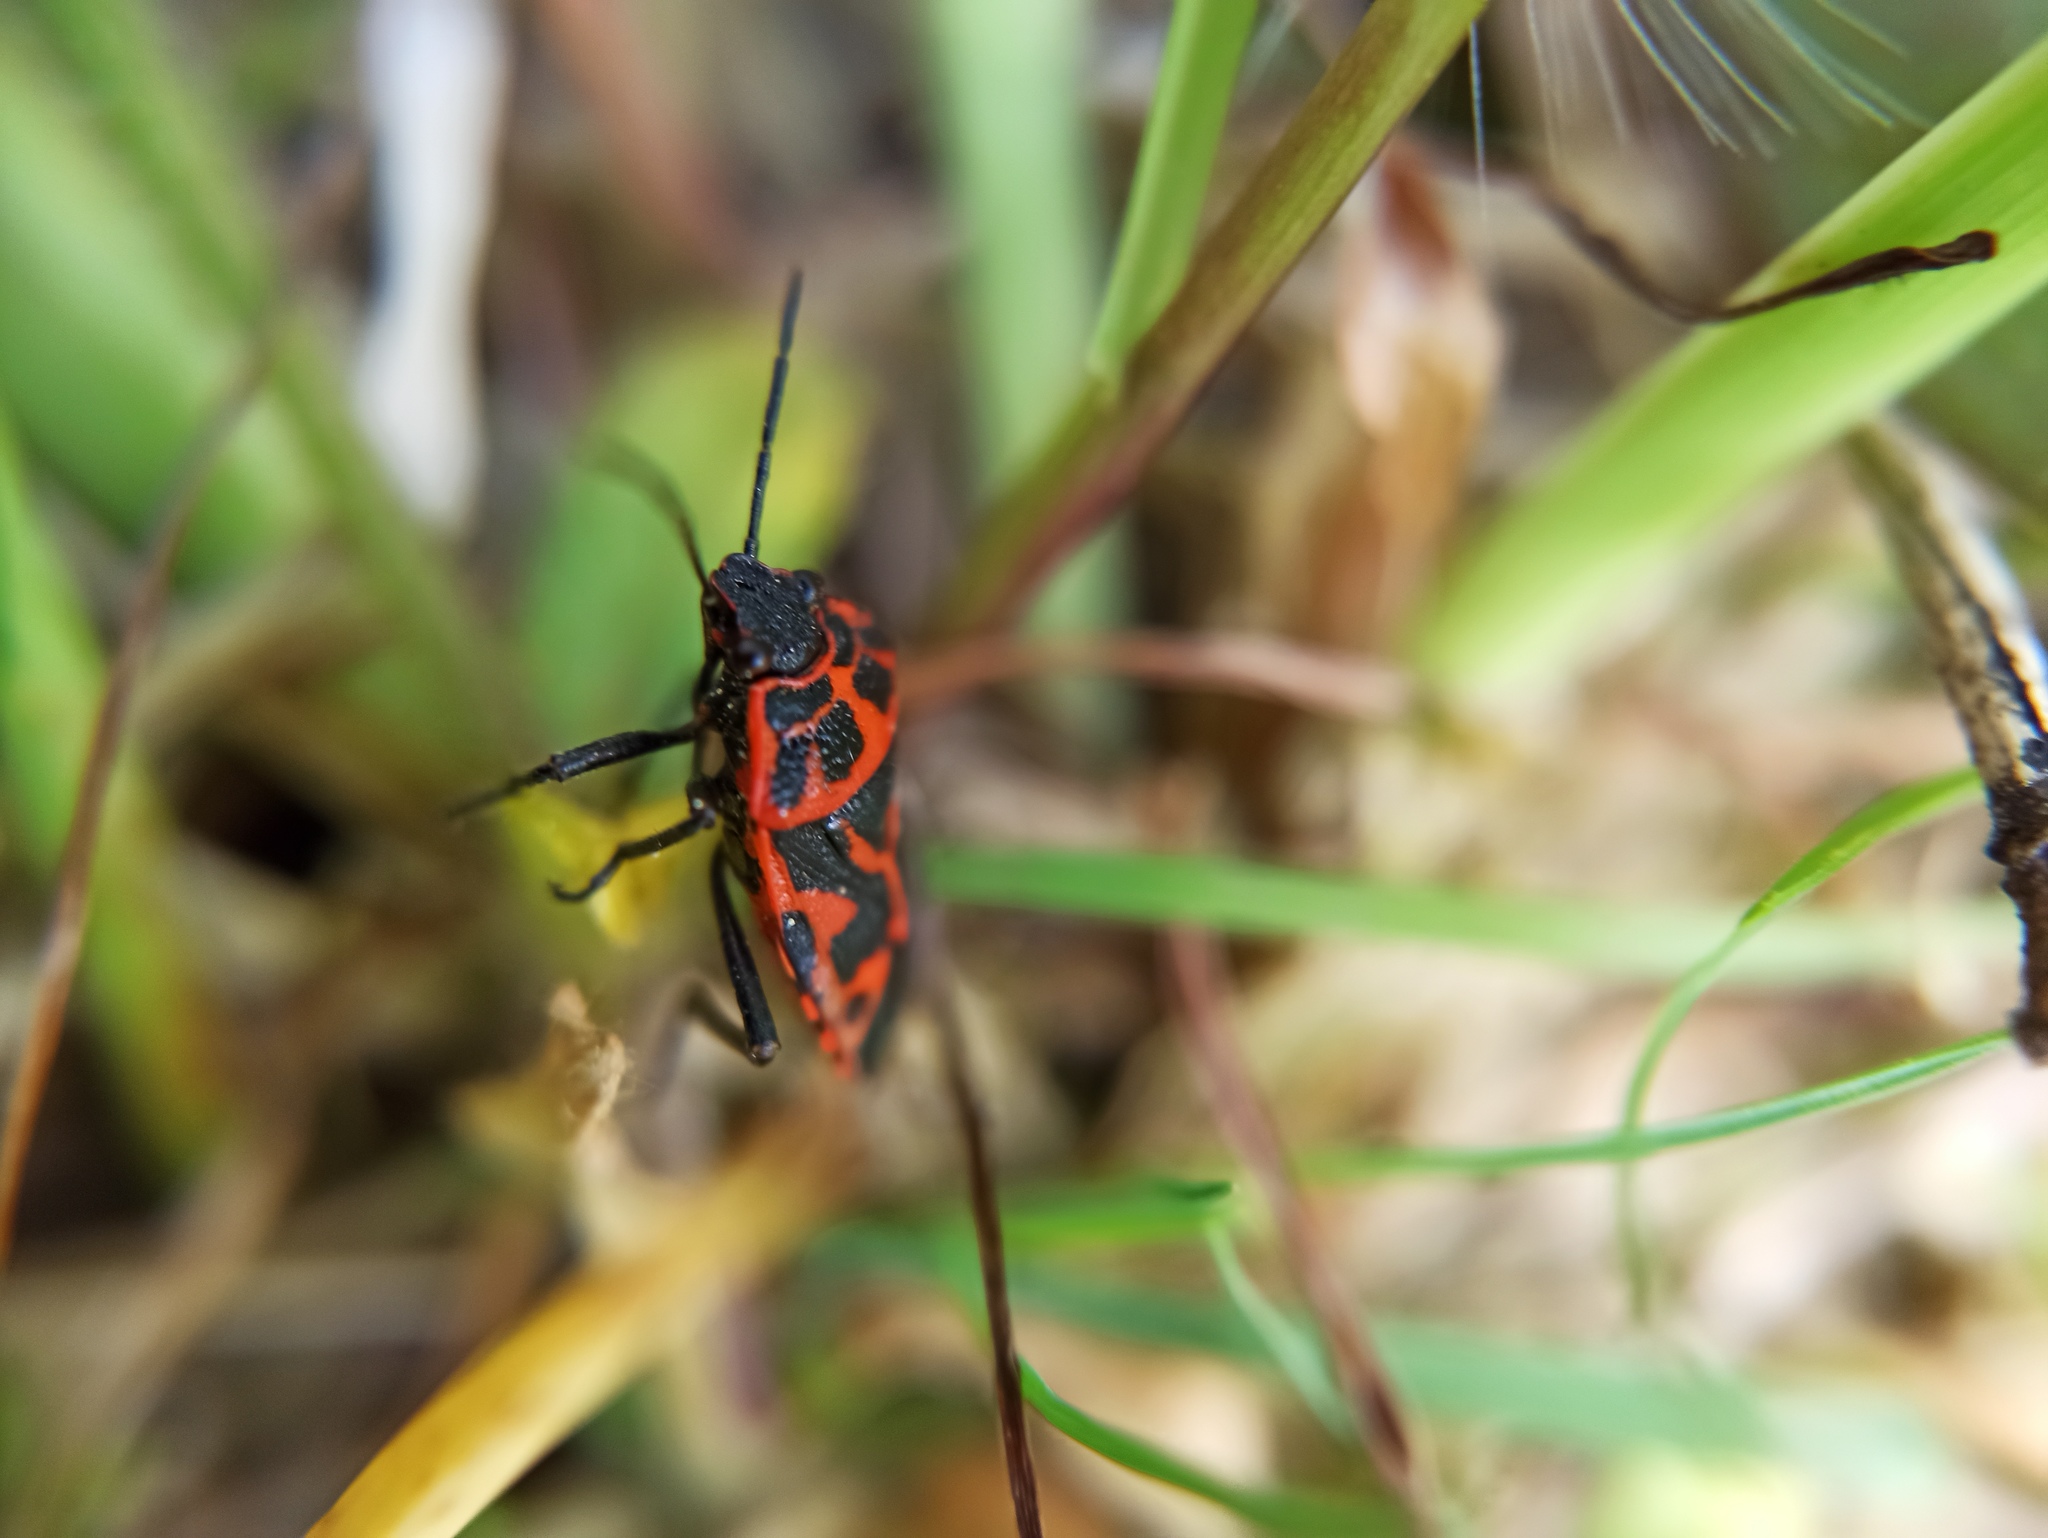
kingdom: Animalia
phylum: Arthropoda
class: Insecta
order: Hemiptera
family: Pentatomidae
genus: Eurydema
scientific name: Eurydema ventralis
